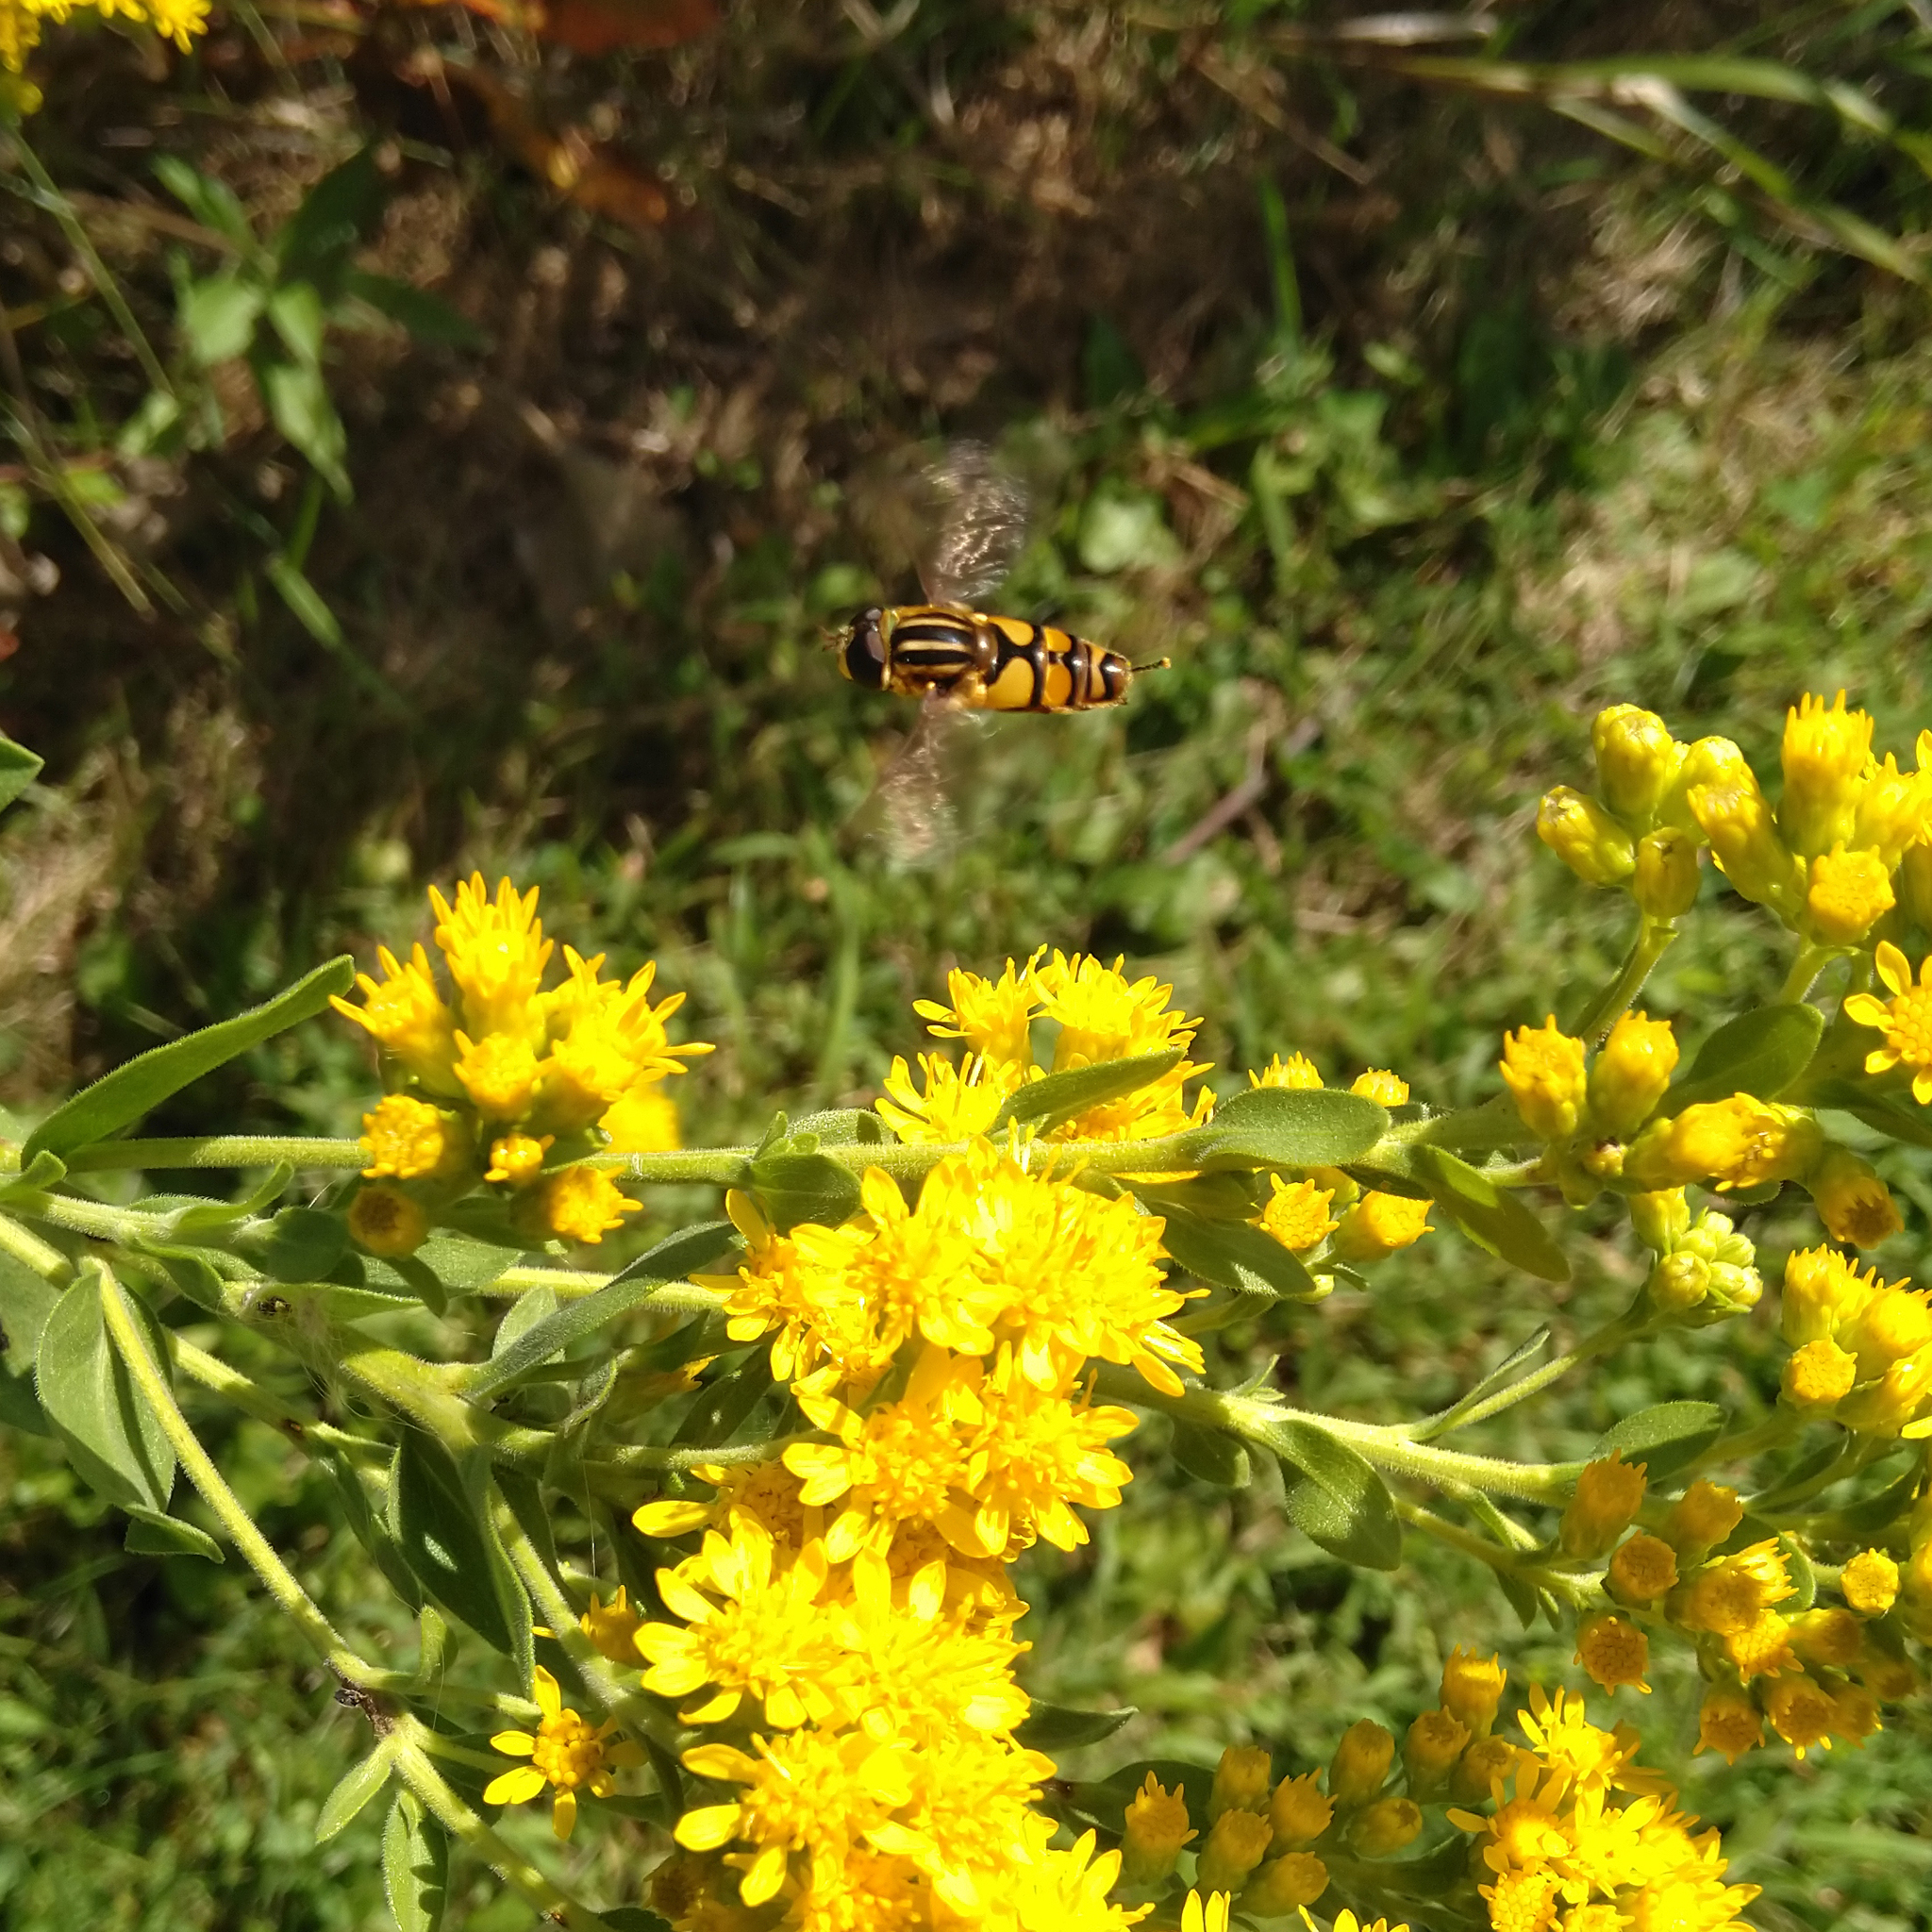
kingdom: Animalia
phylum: Arthropoda
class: Insecta
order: Diptera
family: Syrphidae
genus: Helophilus
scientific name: Helophilus fasciatus
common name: Narrow-headed marsh fly
